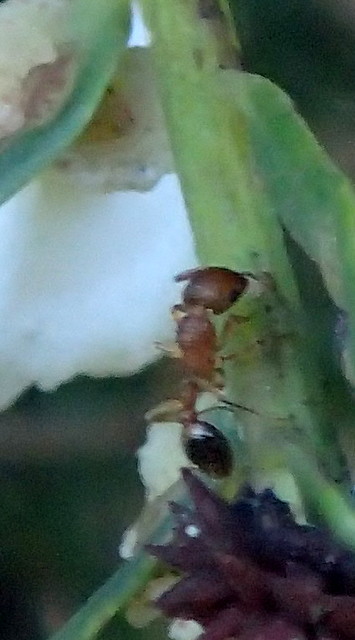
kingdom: Animalia
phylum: Arthropoda
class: Insecta
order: Hymenoptera
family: Formicidae
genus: Tetramorium
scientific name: Tetramorium bicarinatum
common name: Guinea ant
